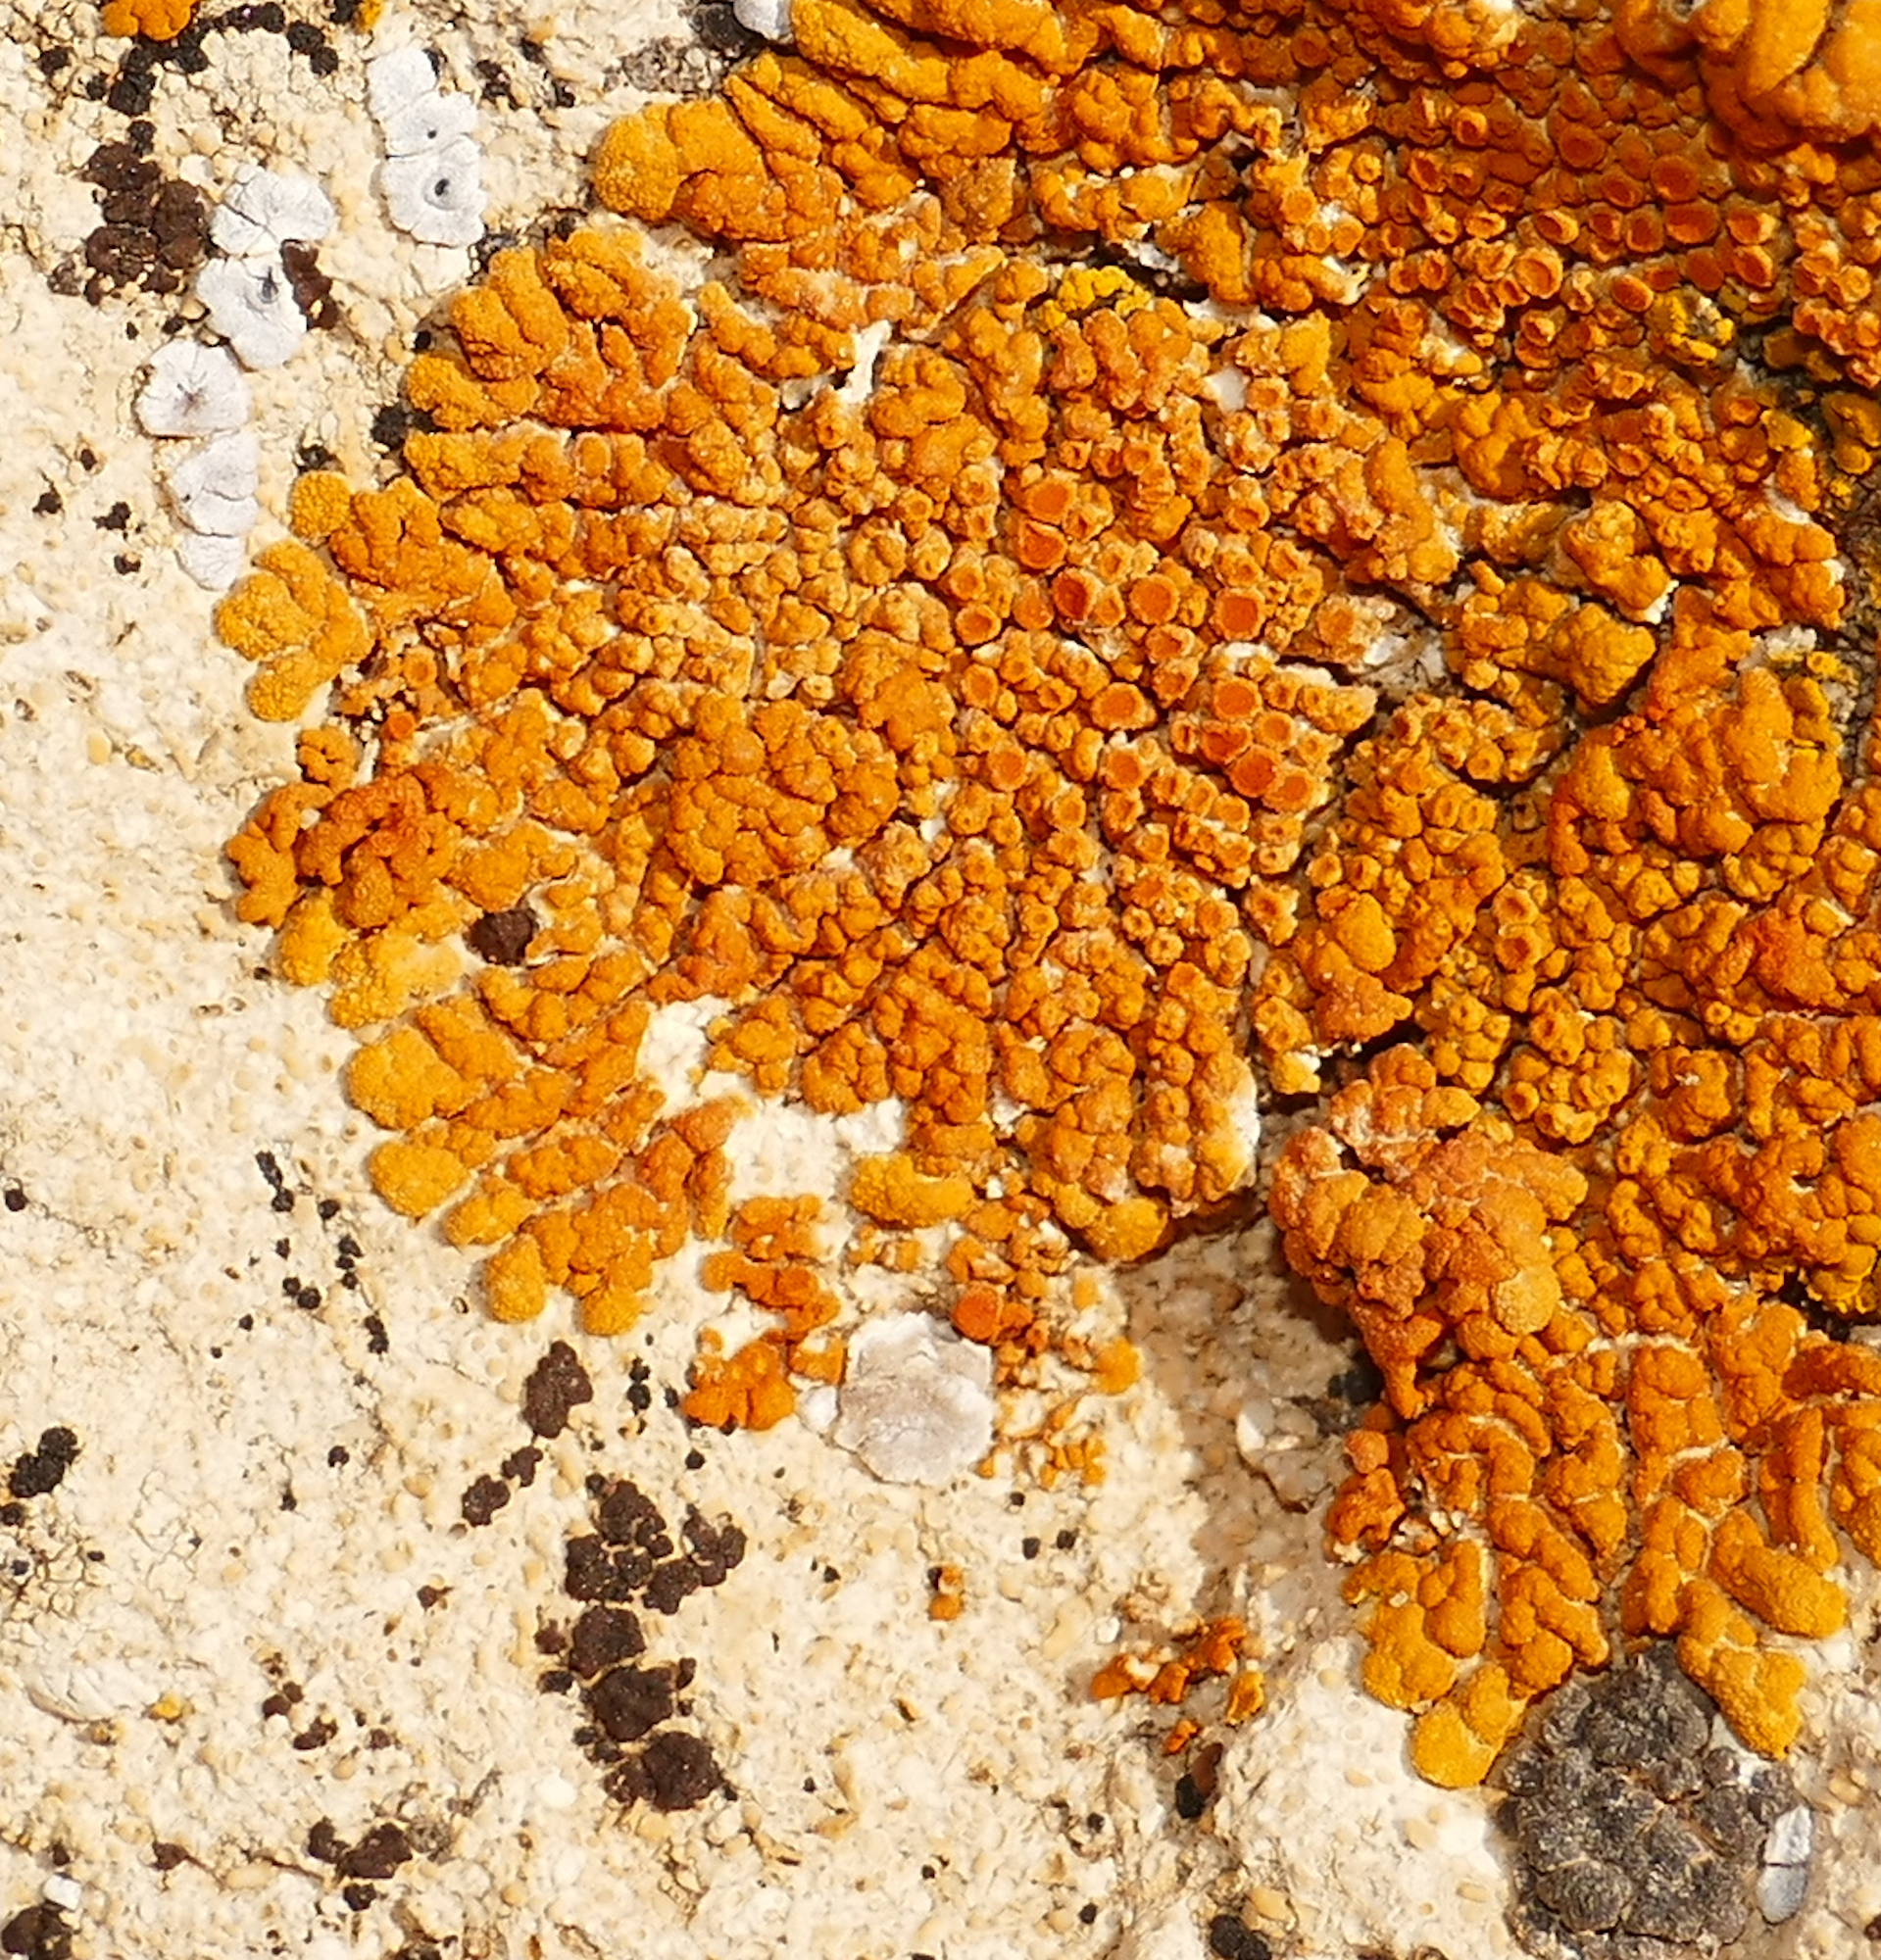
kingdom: Fungi
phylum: Ascomycota
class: Lecanoromycetes
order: Teloschistales
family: Teloschistaceae
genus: Golubkovia
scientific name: Golubkovia trachyphylla
